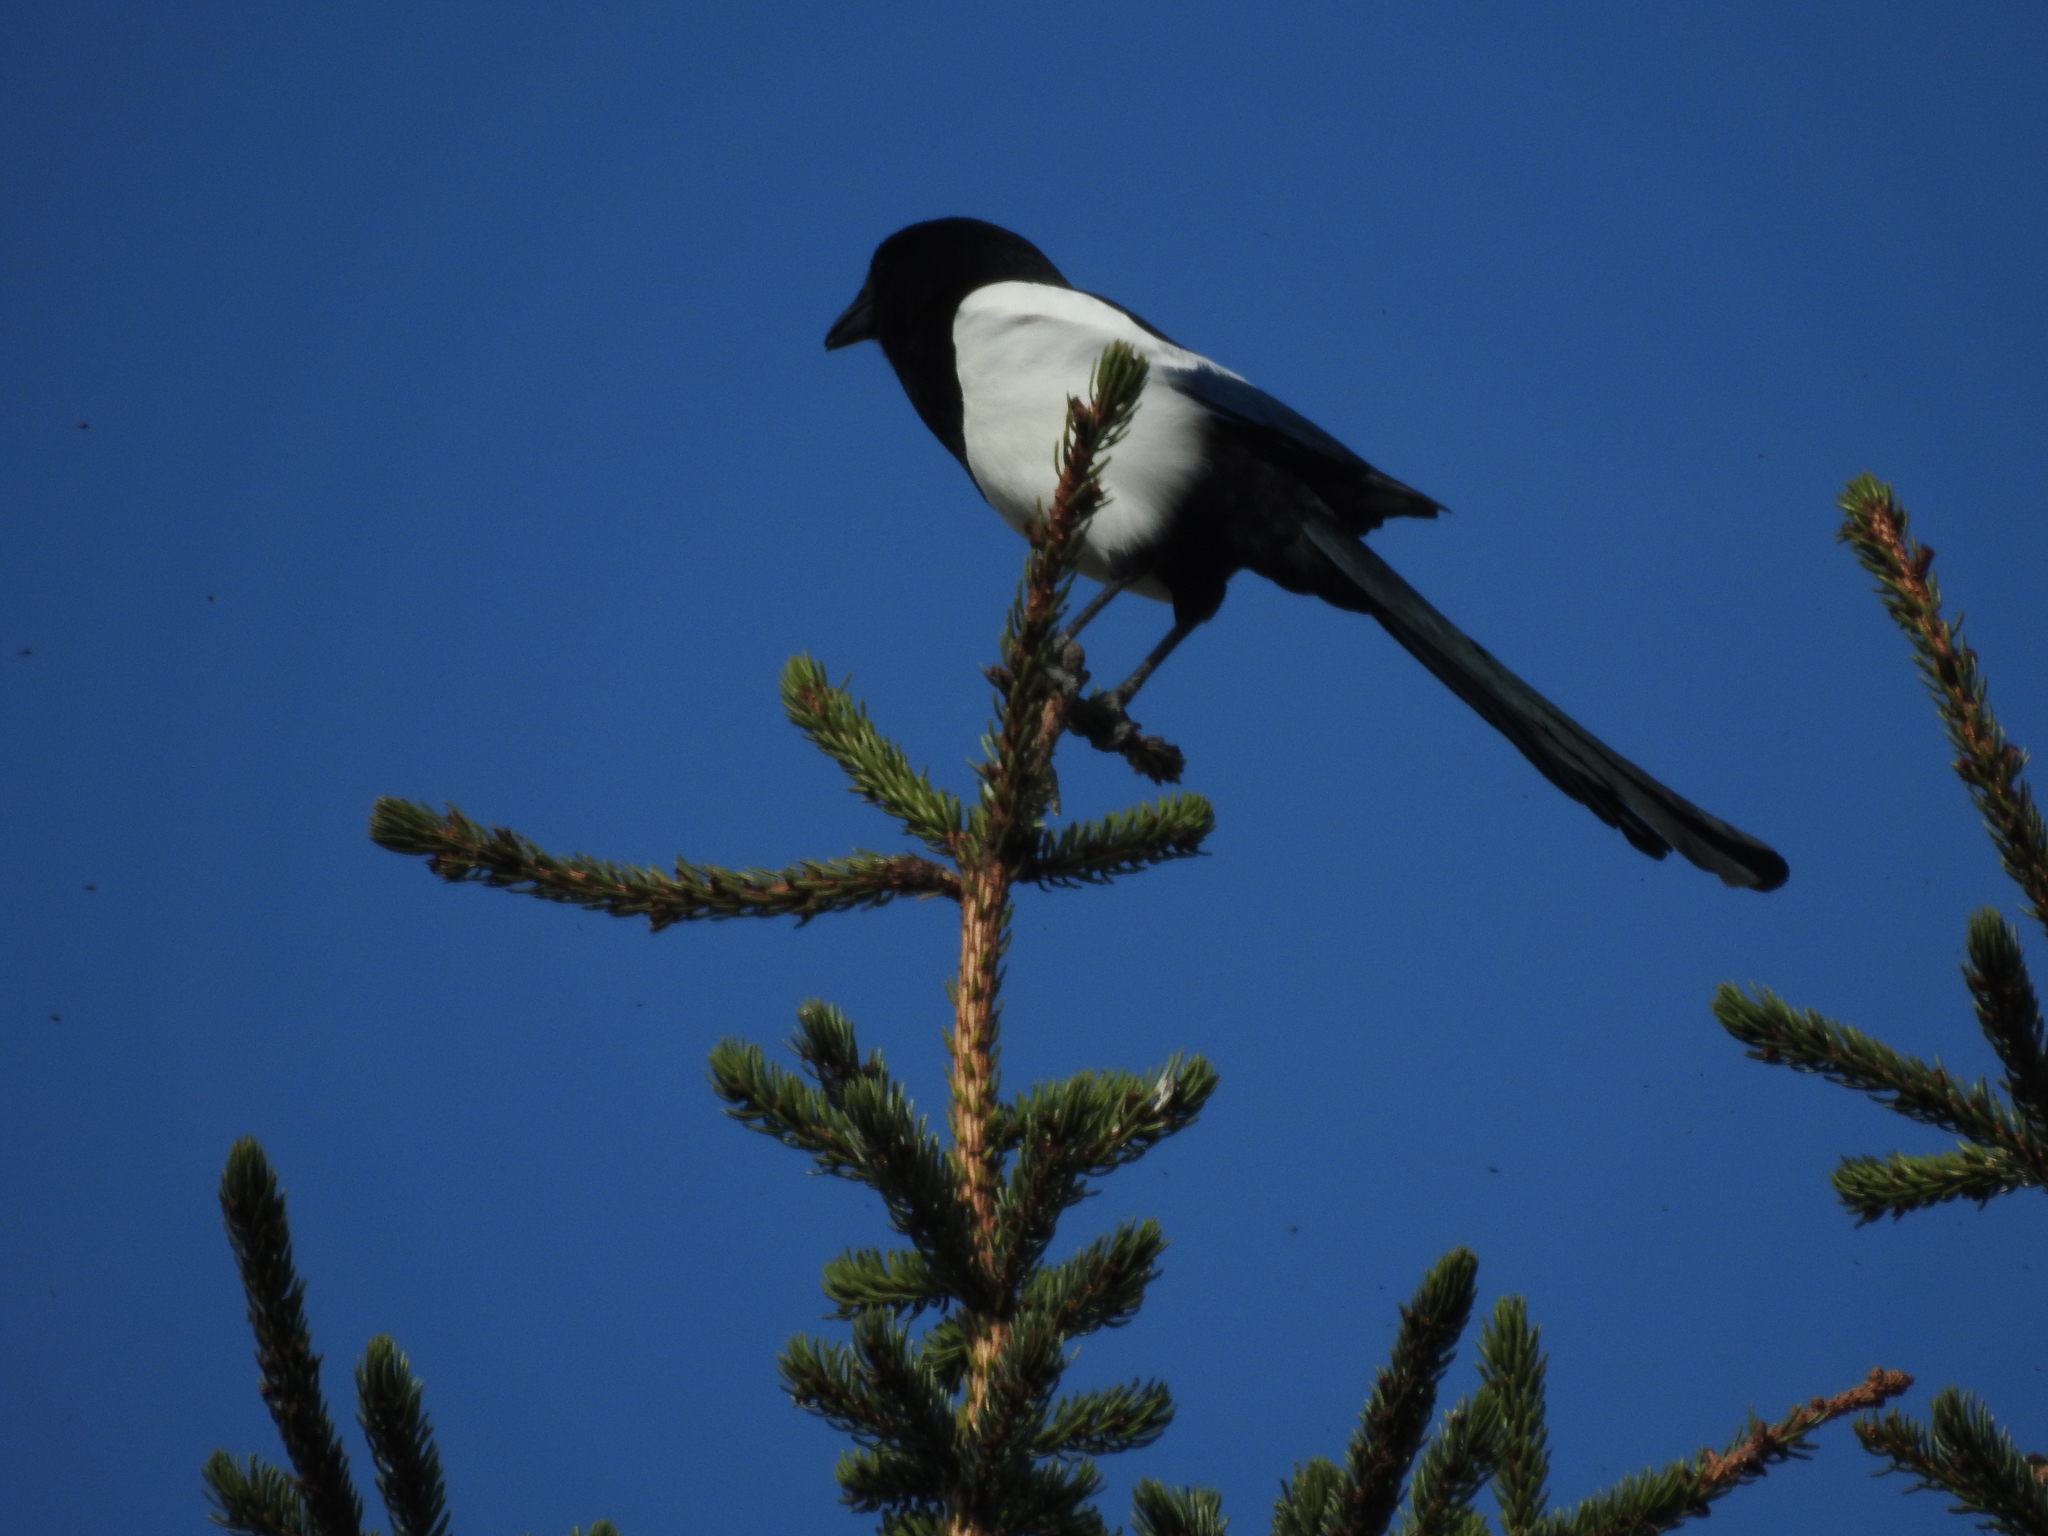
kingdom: Animalia
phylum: Chordata
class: Aves
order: Passeriformes
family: Corvidae
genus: Pica
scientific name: Pica pica
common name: Eurasian magpie
